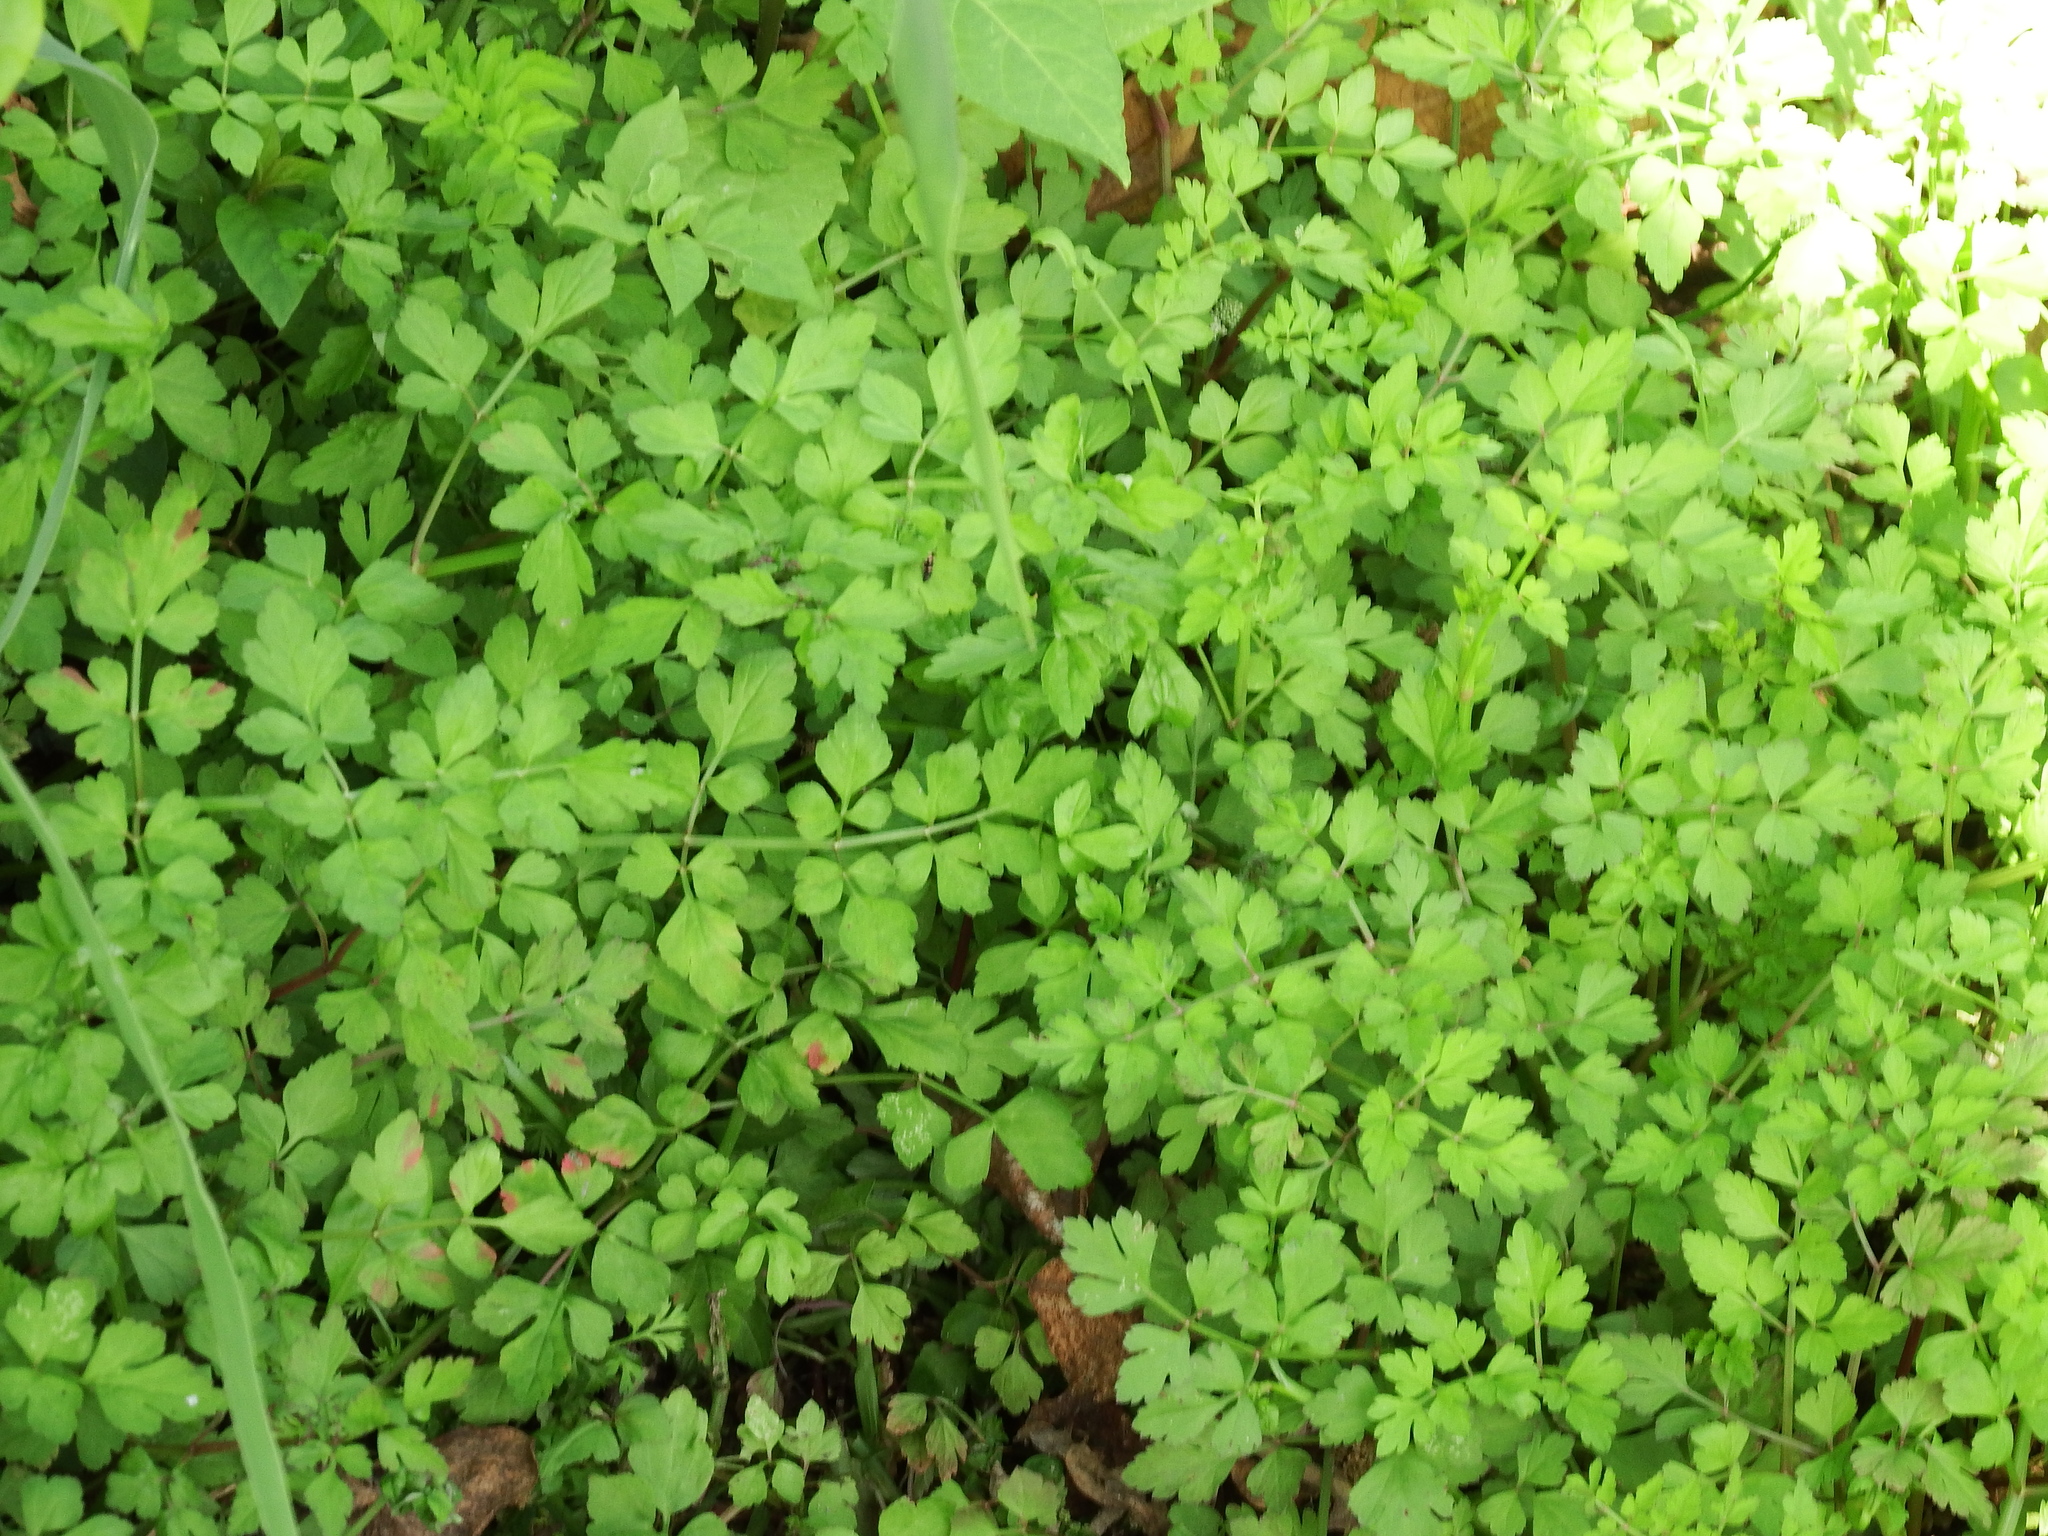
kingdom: Plantae
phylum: Tracheophyta
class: Magnoliopsida
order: Apiales
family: Apiaceae
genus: Oenanthe
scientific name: Oenanthe javanica
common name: Java water-dropwort
